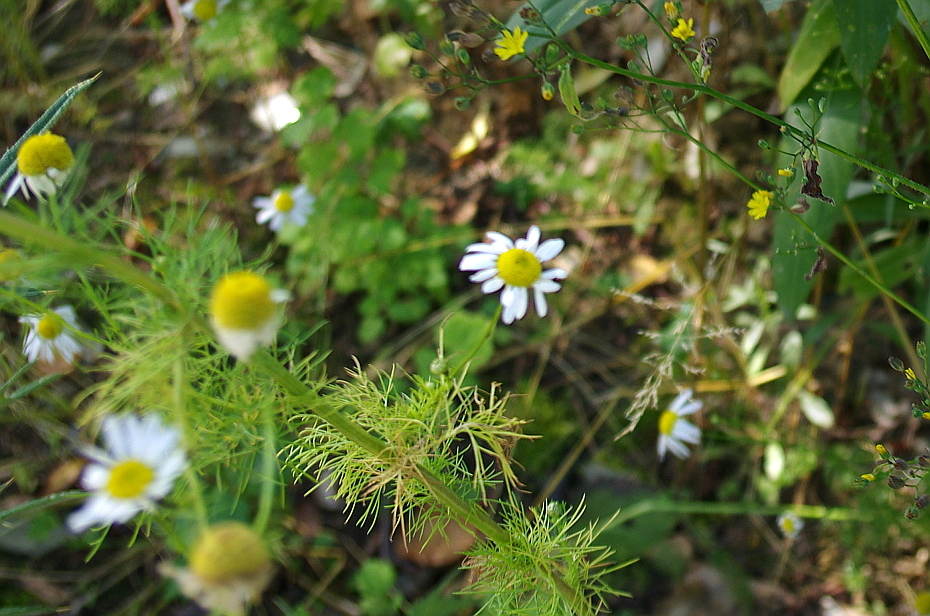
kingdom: Plantae
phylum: Tracheophyta
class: Magnoliopsida
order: Asterales
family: Asteraceae
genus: Tripleurospermum
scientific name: Tripleurospermum inodorum
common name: Scentless mayweed
